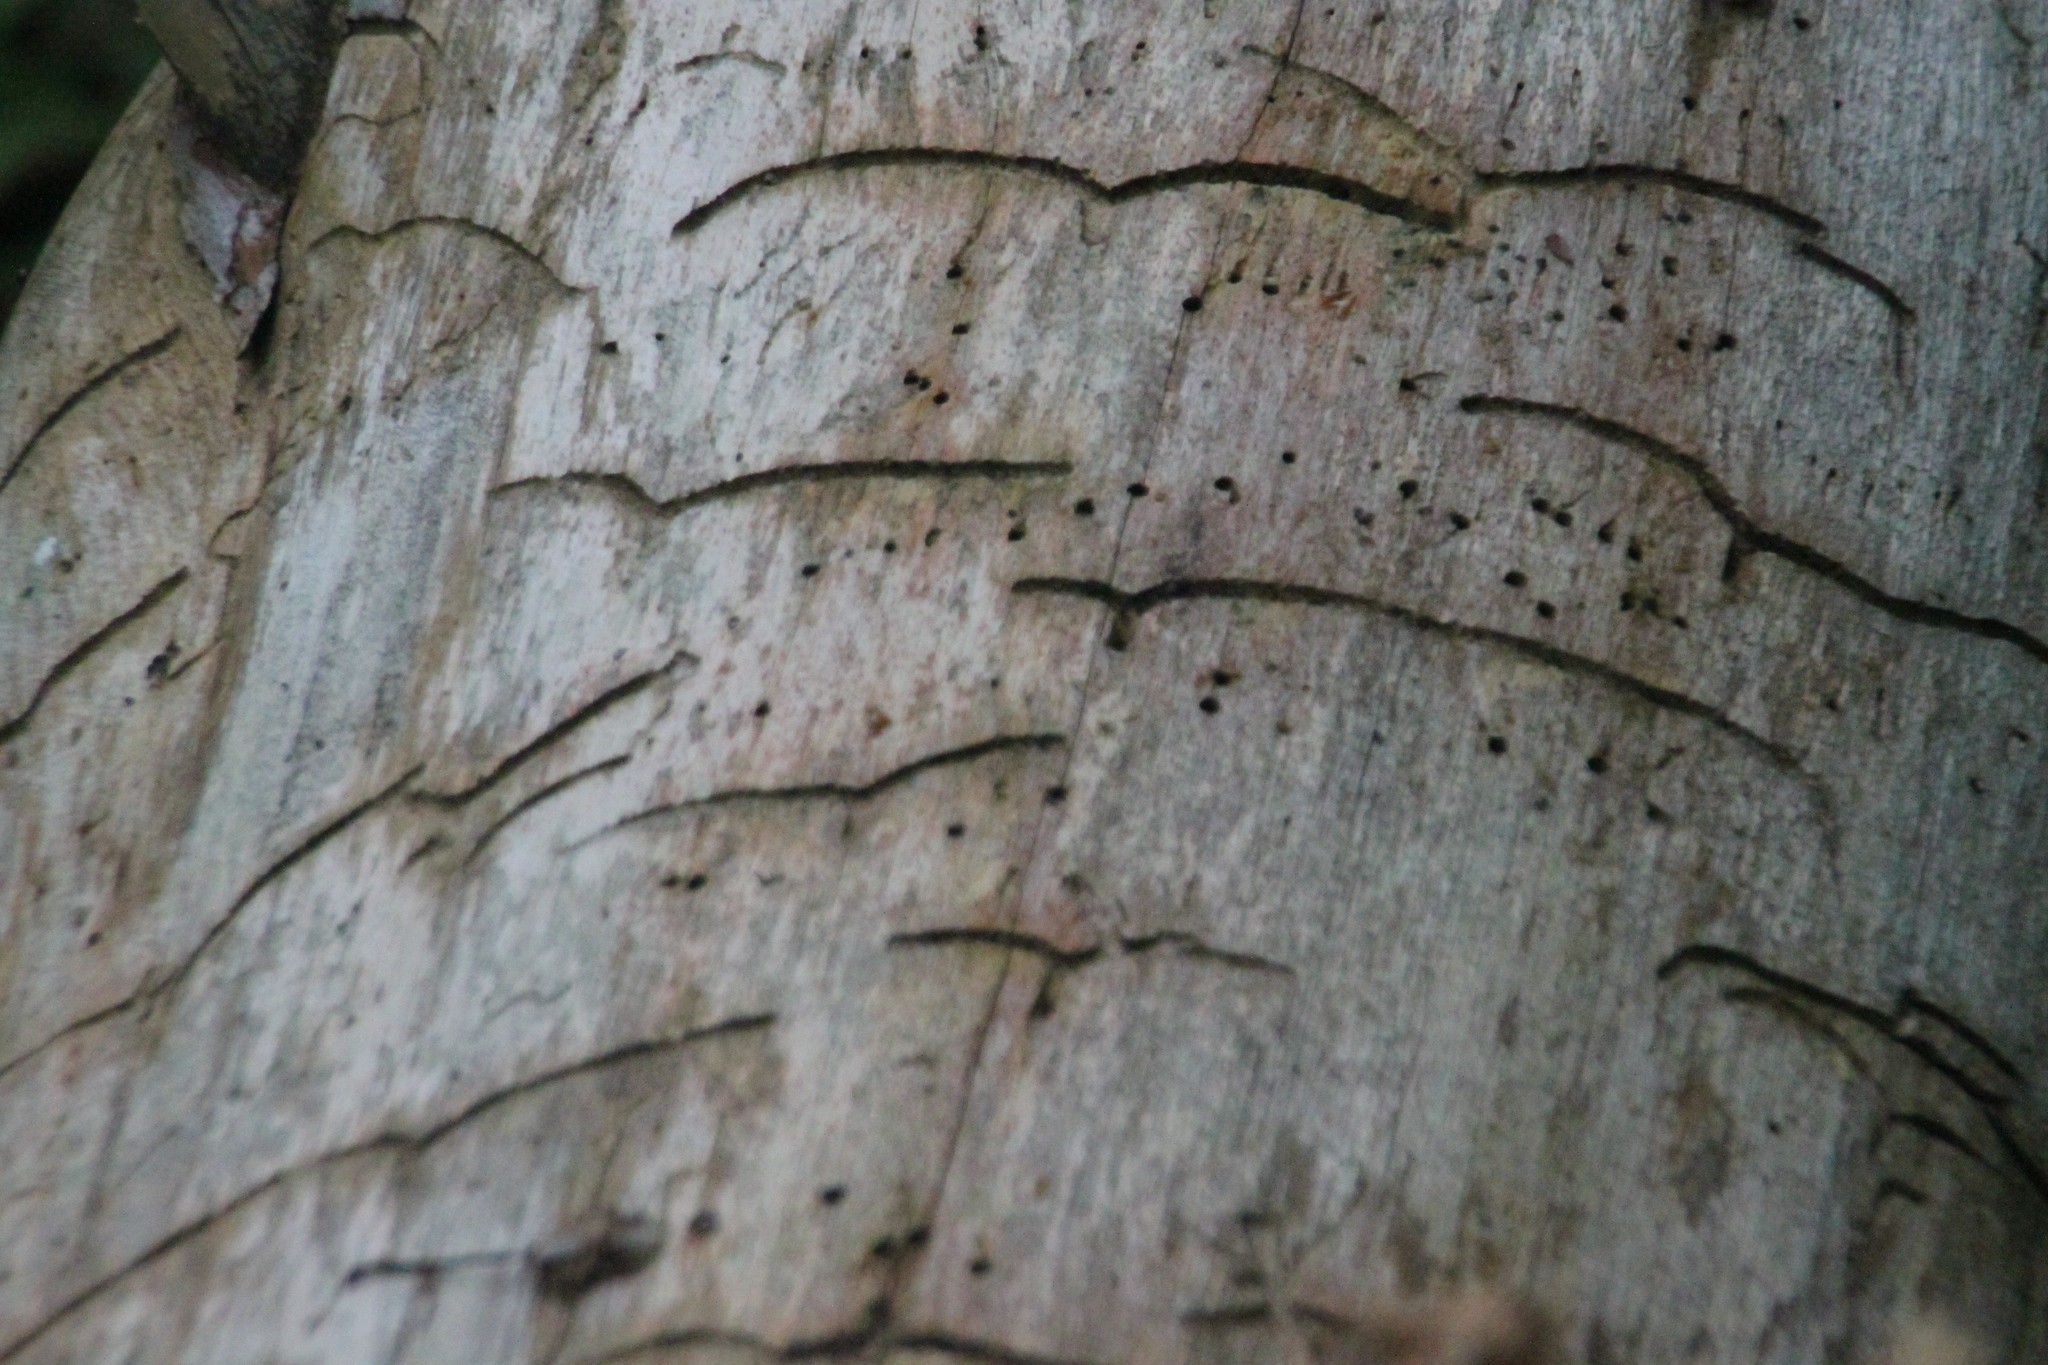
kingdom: Animalia
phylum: Arthropoda
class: Insecta
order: Coleoptera
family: Curculionidae
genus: Tomicus
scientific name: Tomicus minor
